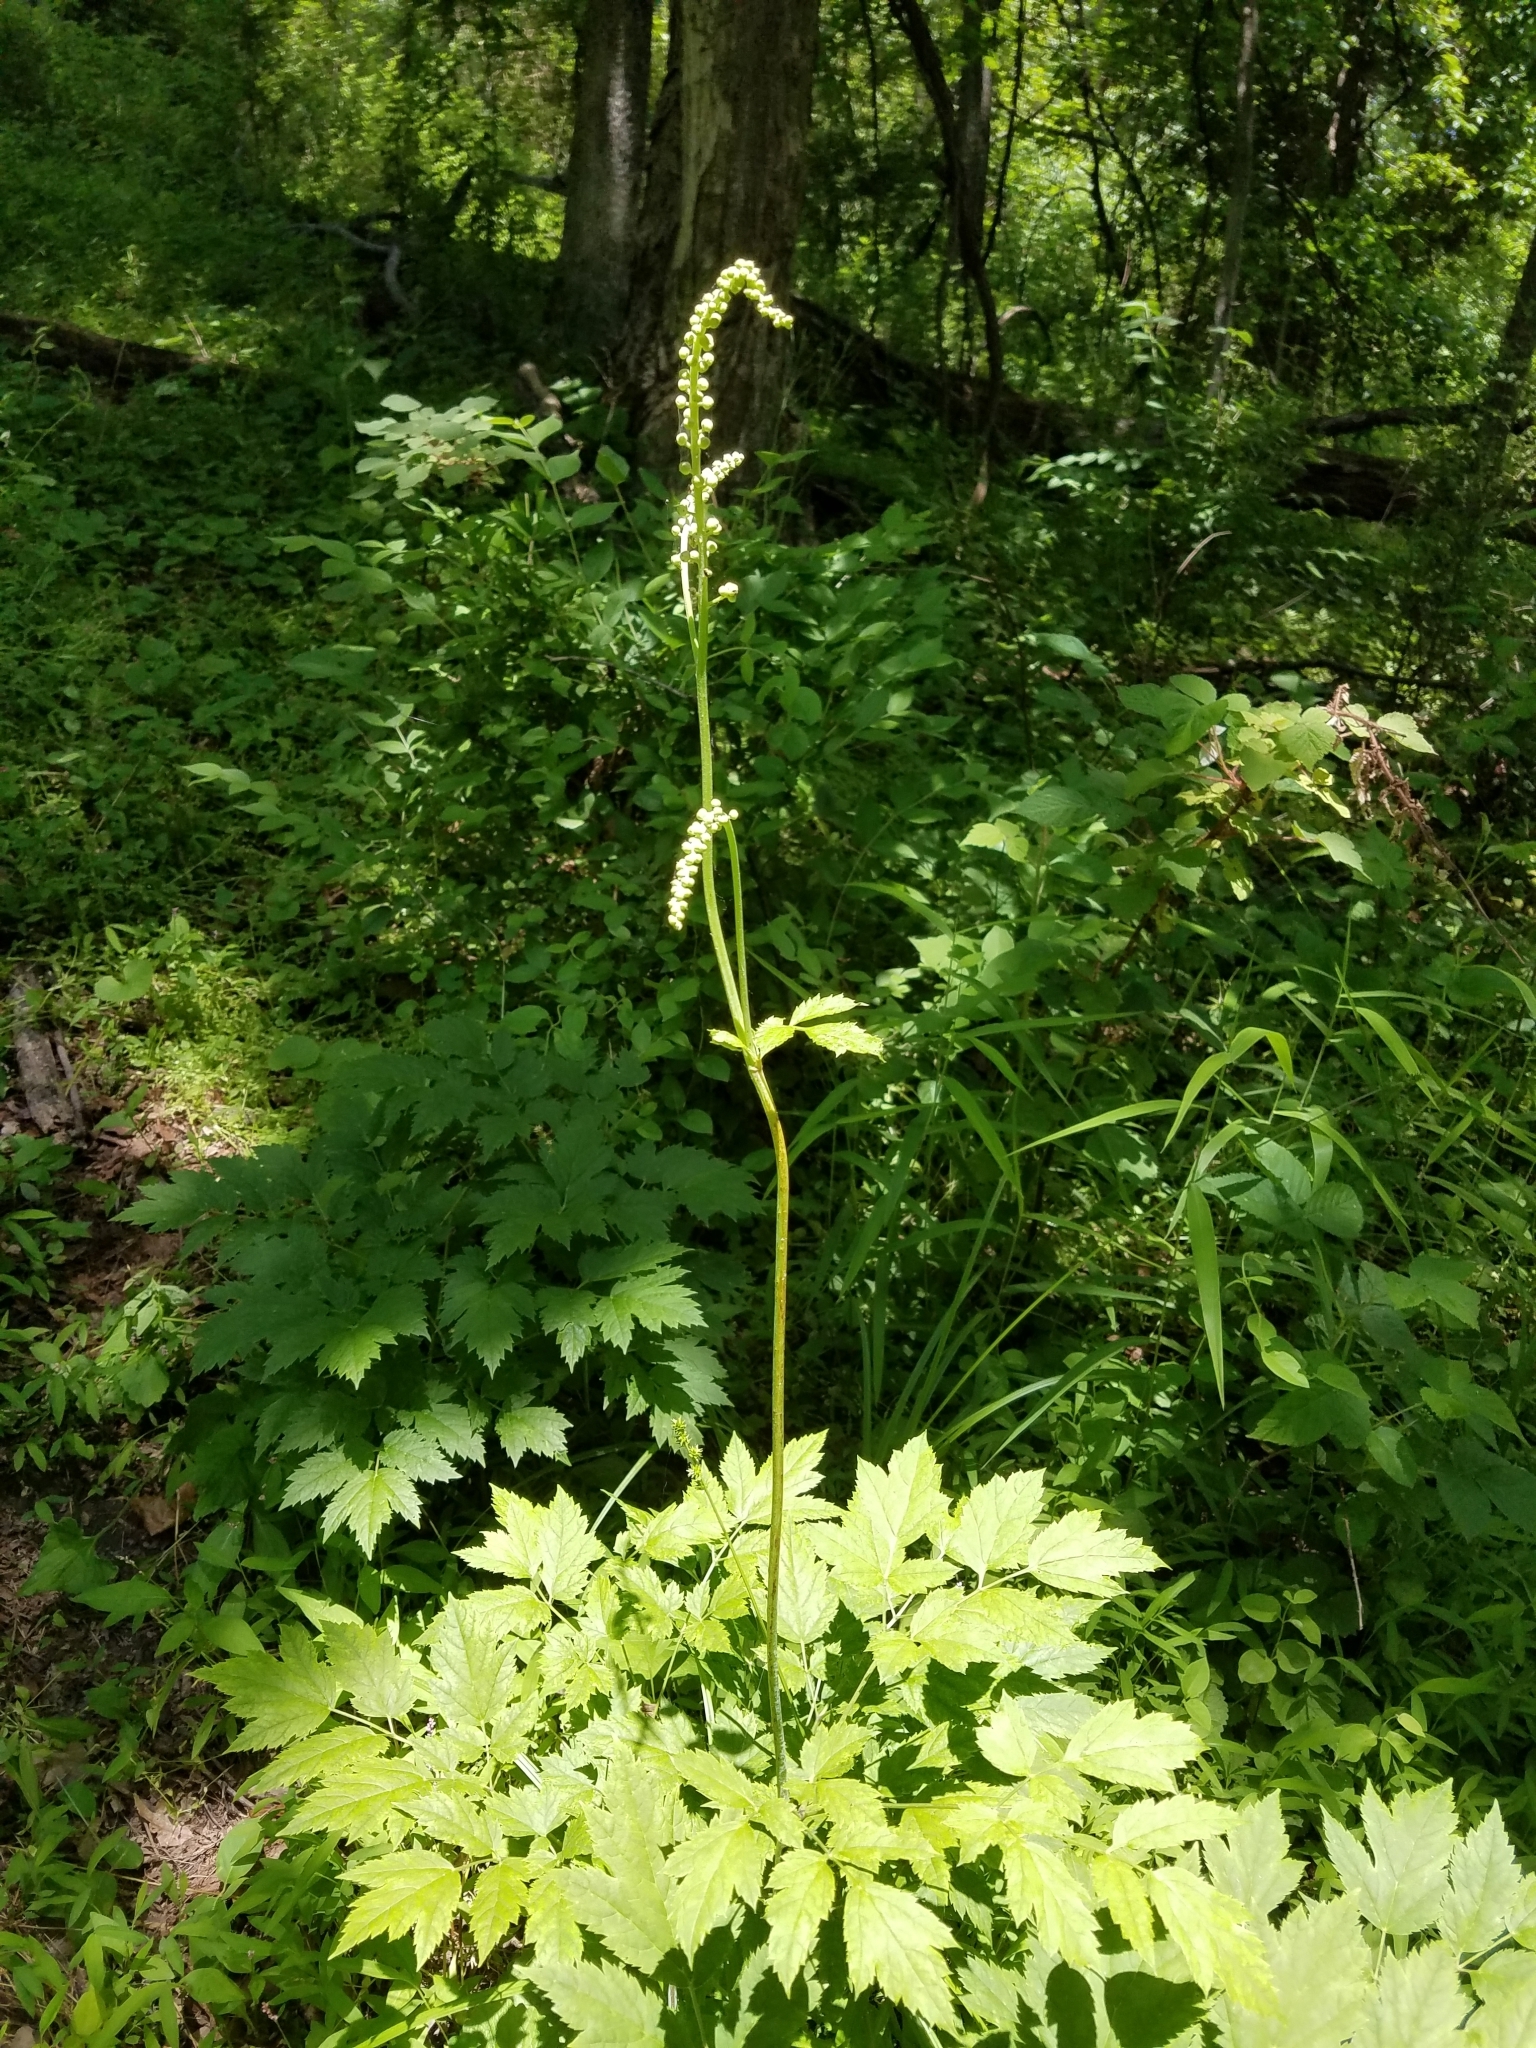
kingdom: Plantae
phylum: Tracheophyta
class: Magnoliopsida
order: Ranunculales
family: Ranunculaceae
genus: Actaea
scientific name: Actaea racemosa
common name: Black cohosh
